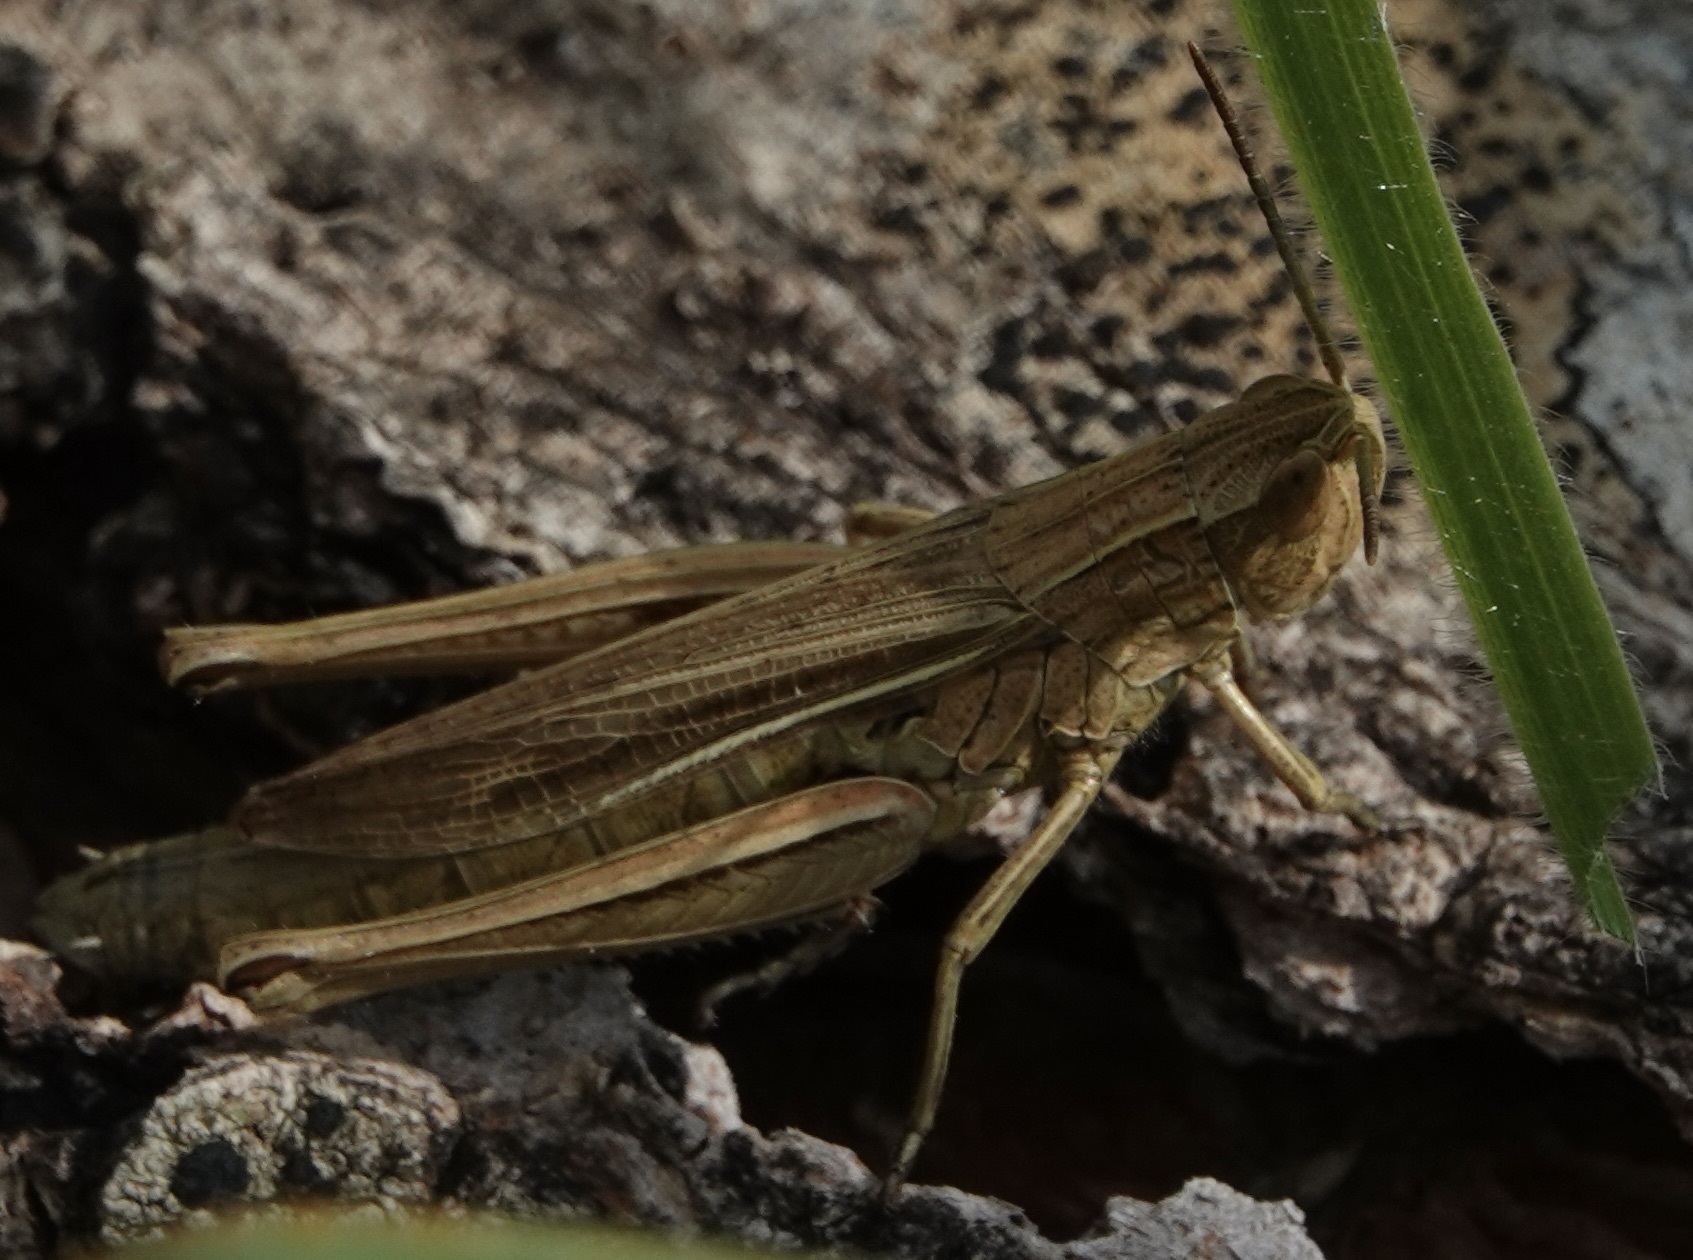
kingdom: Animalia
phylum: Arthropoda
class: Insecta
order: Orthoptera
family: Acrididae
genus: Chorthippus
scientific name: Chorthippus albomarginatus
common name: Lesser marsh grasshopper
